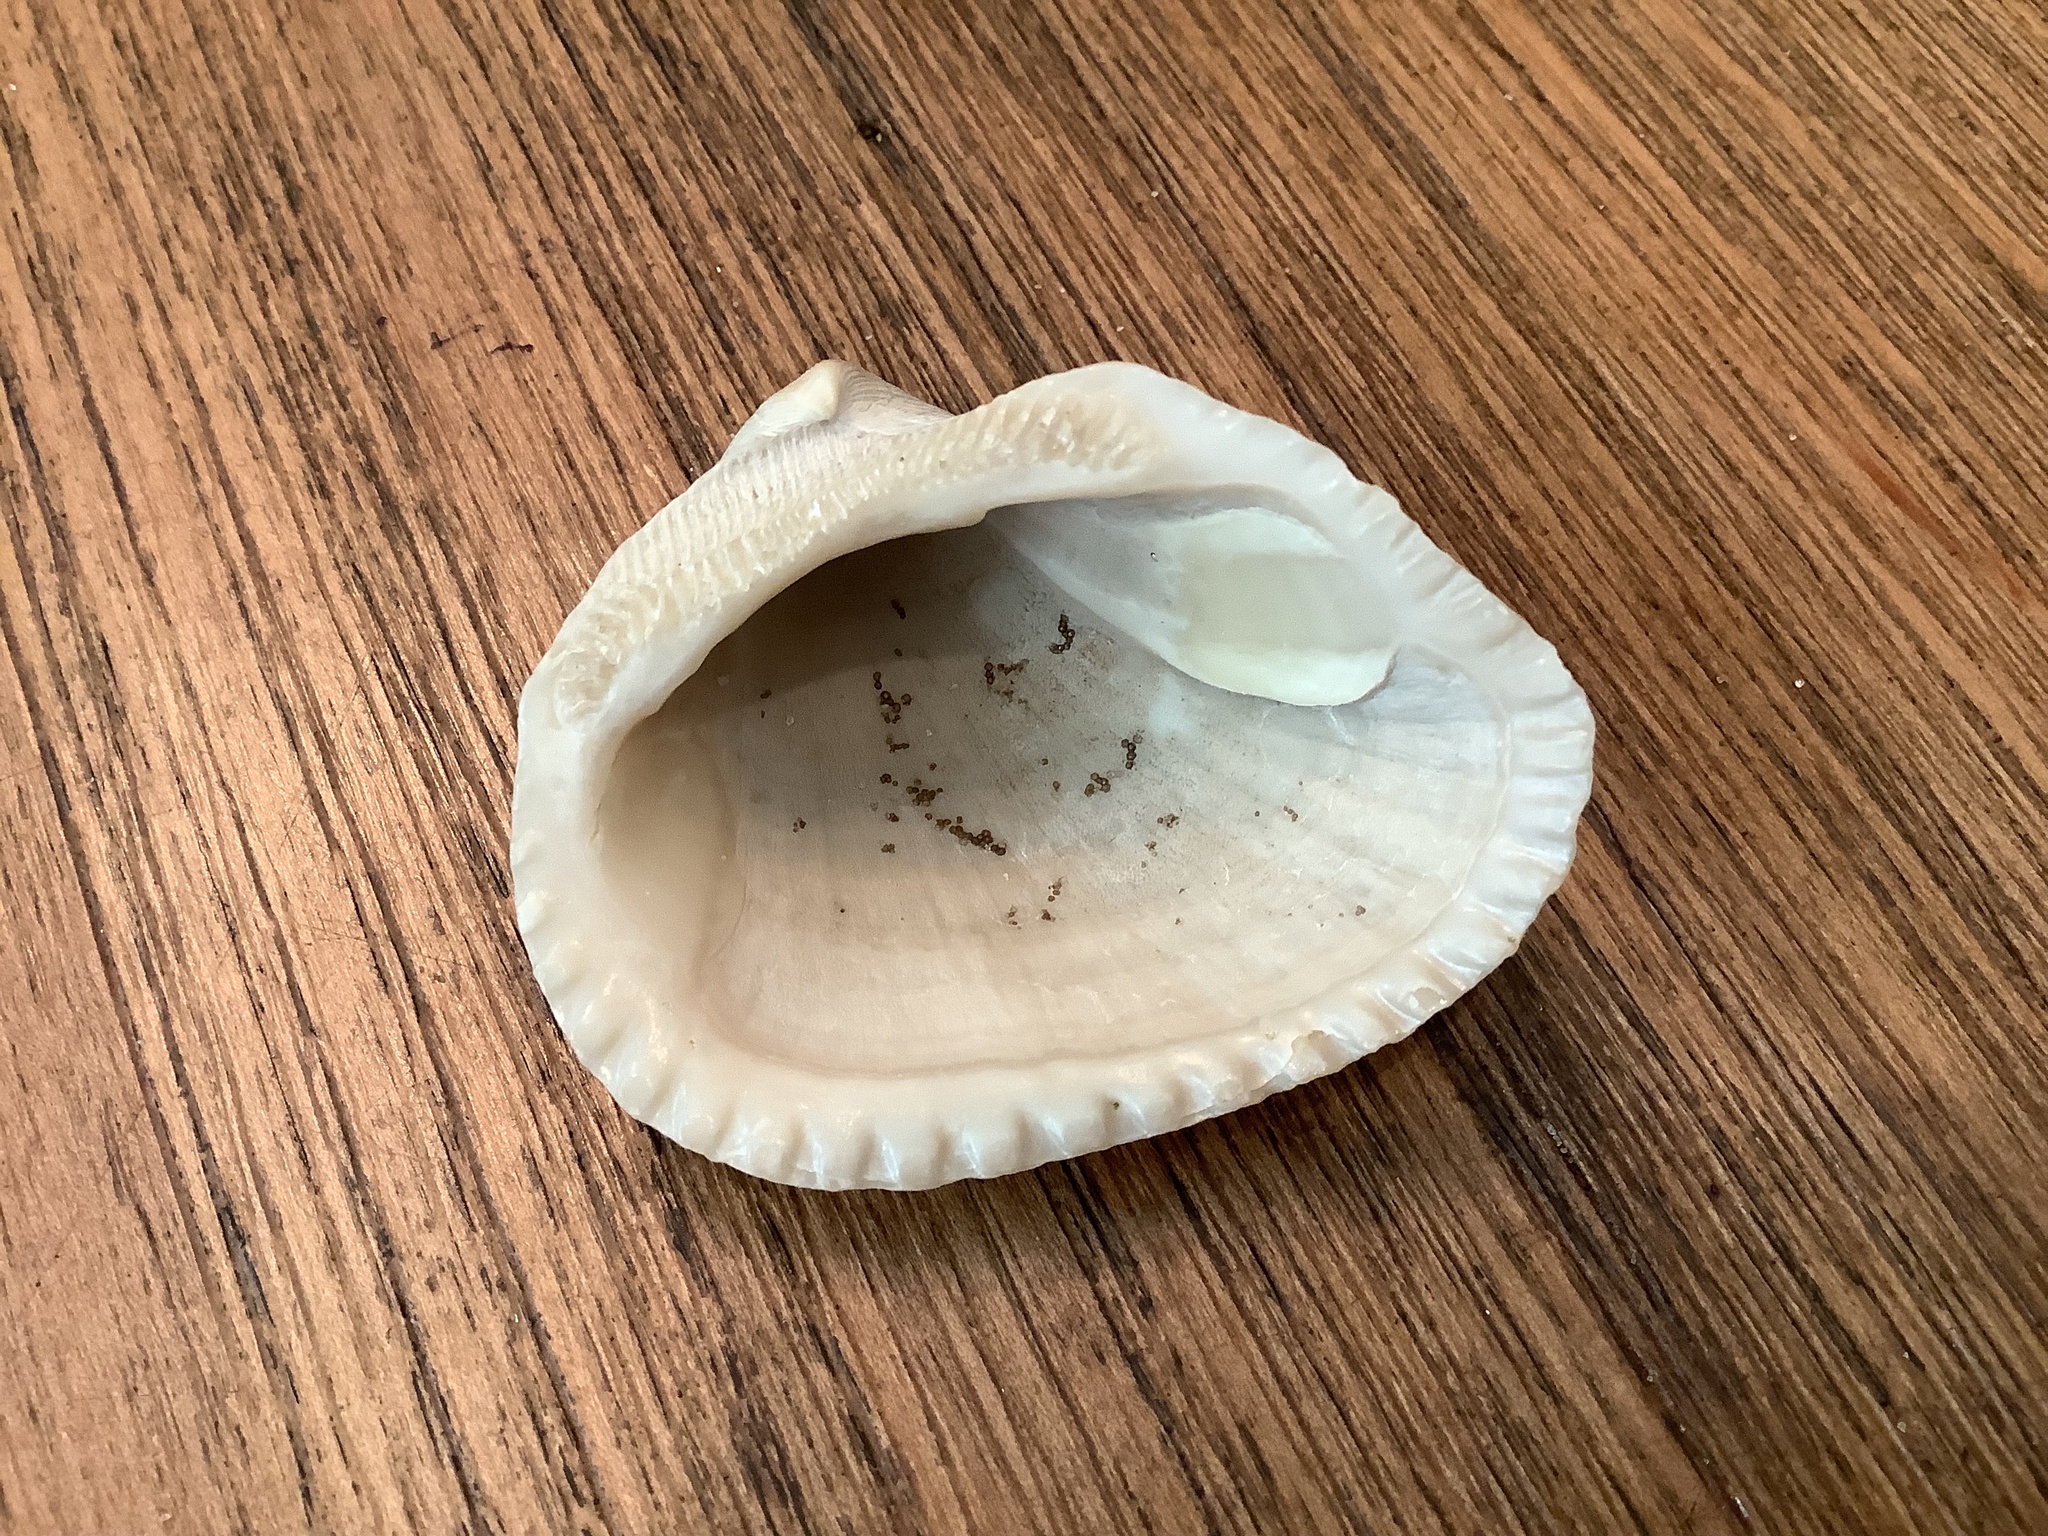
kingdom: Animalia
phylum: Mollusca
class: Bivalvia
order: Arcida
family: Noetiidae
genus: Noetia
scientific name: Noetia ponderosa
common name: Ponderous ark
